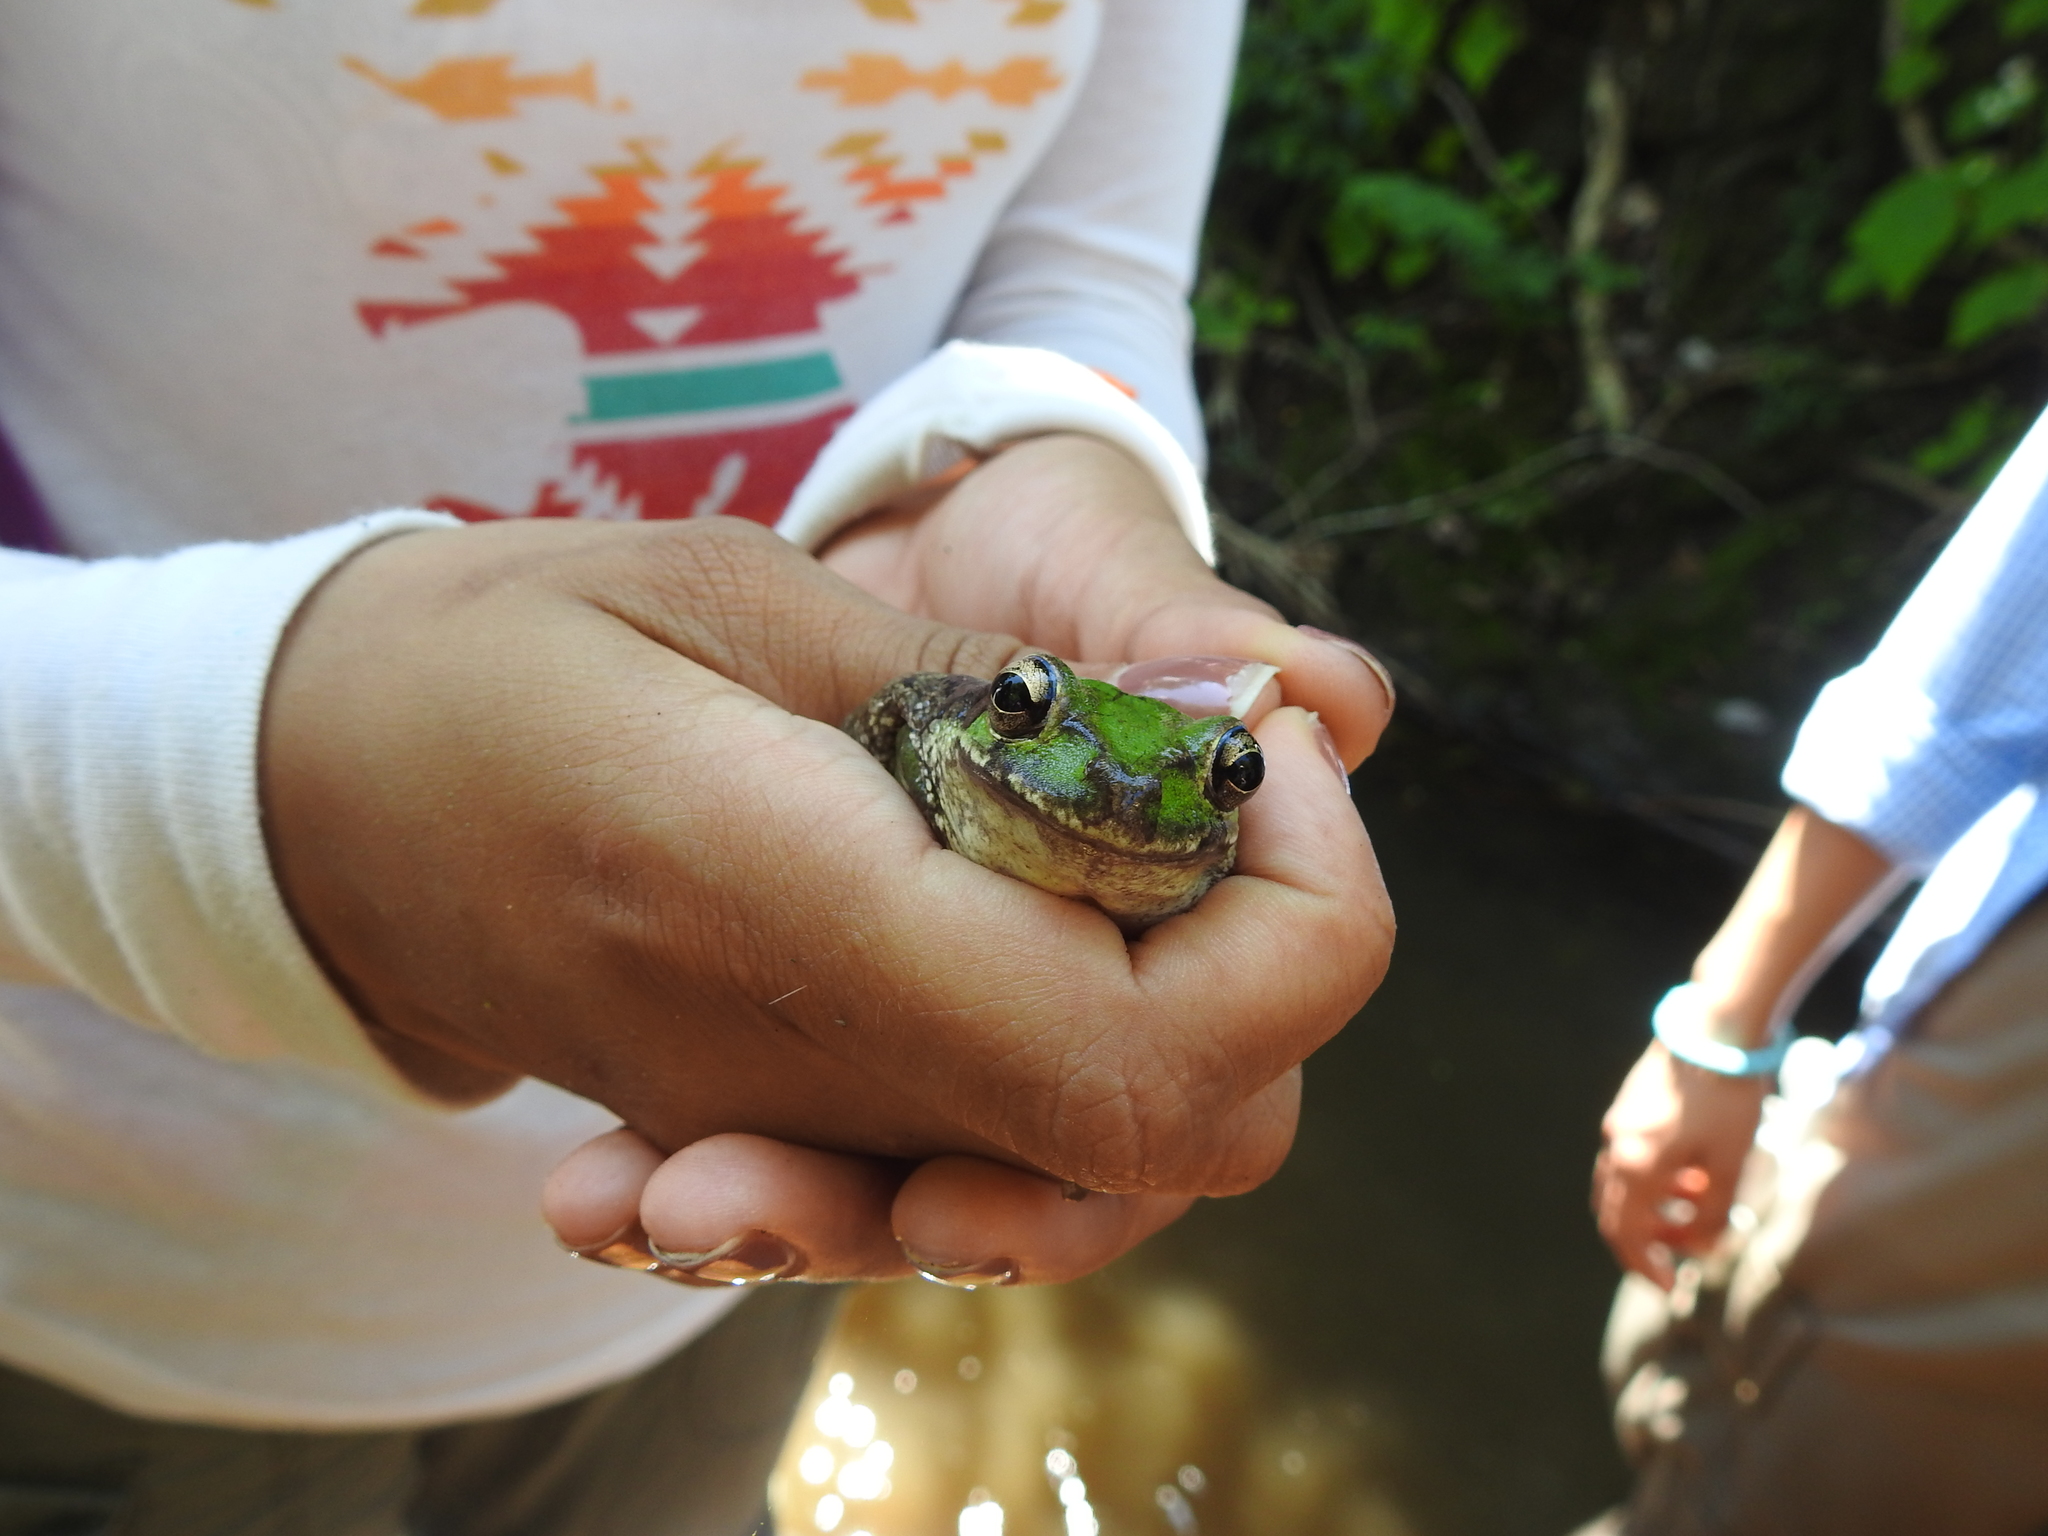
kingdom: Animalia
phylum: Chordata
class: Amphibia
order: Anura
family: Hylidae
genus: Smilisca
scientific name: Smilisca baudinii
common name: Mexican smilisca
